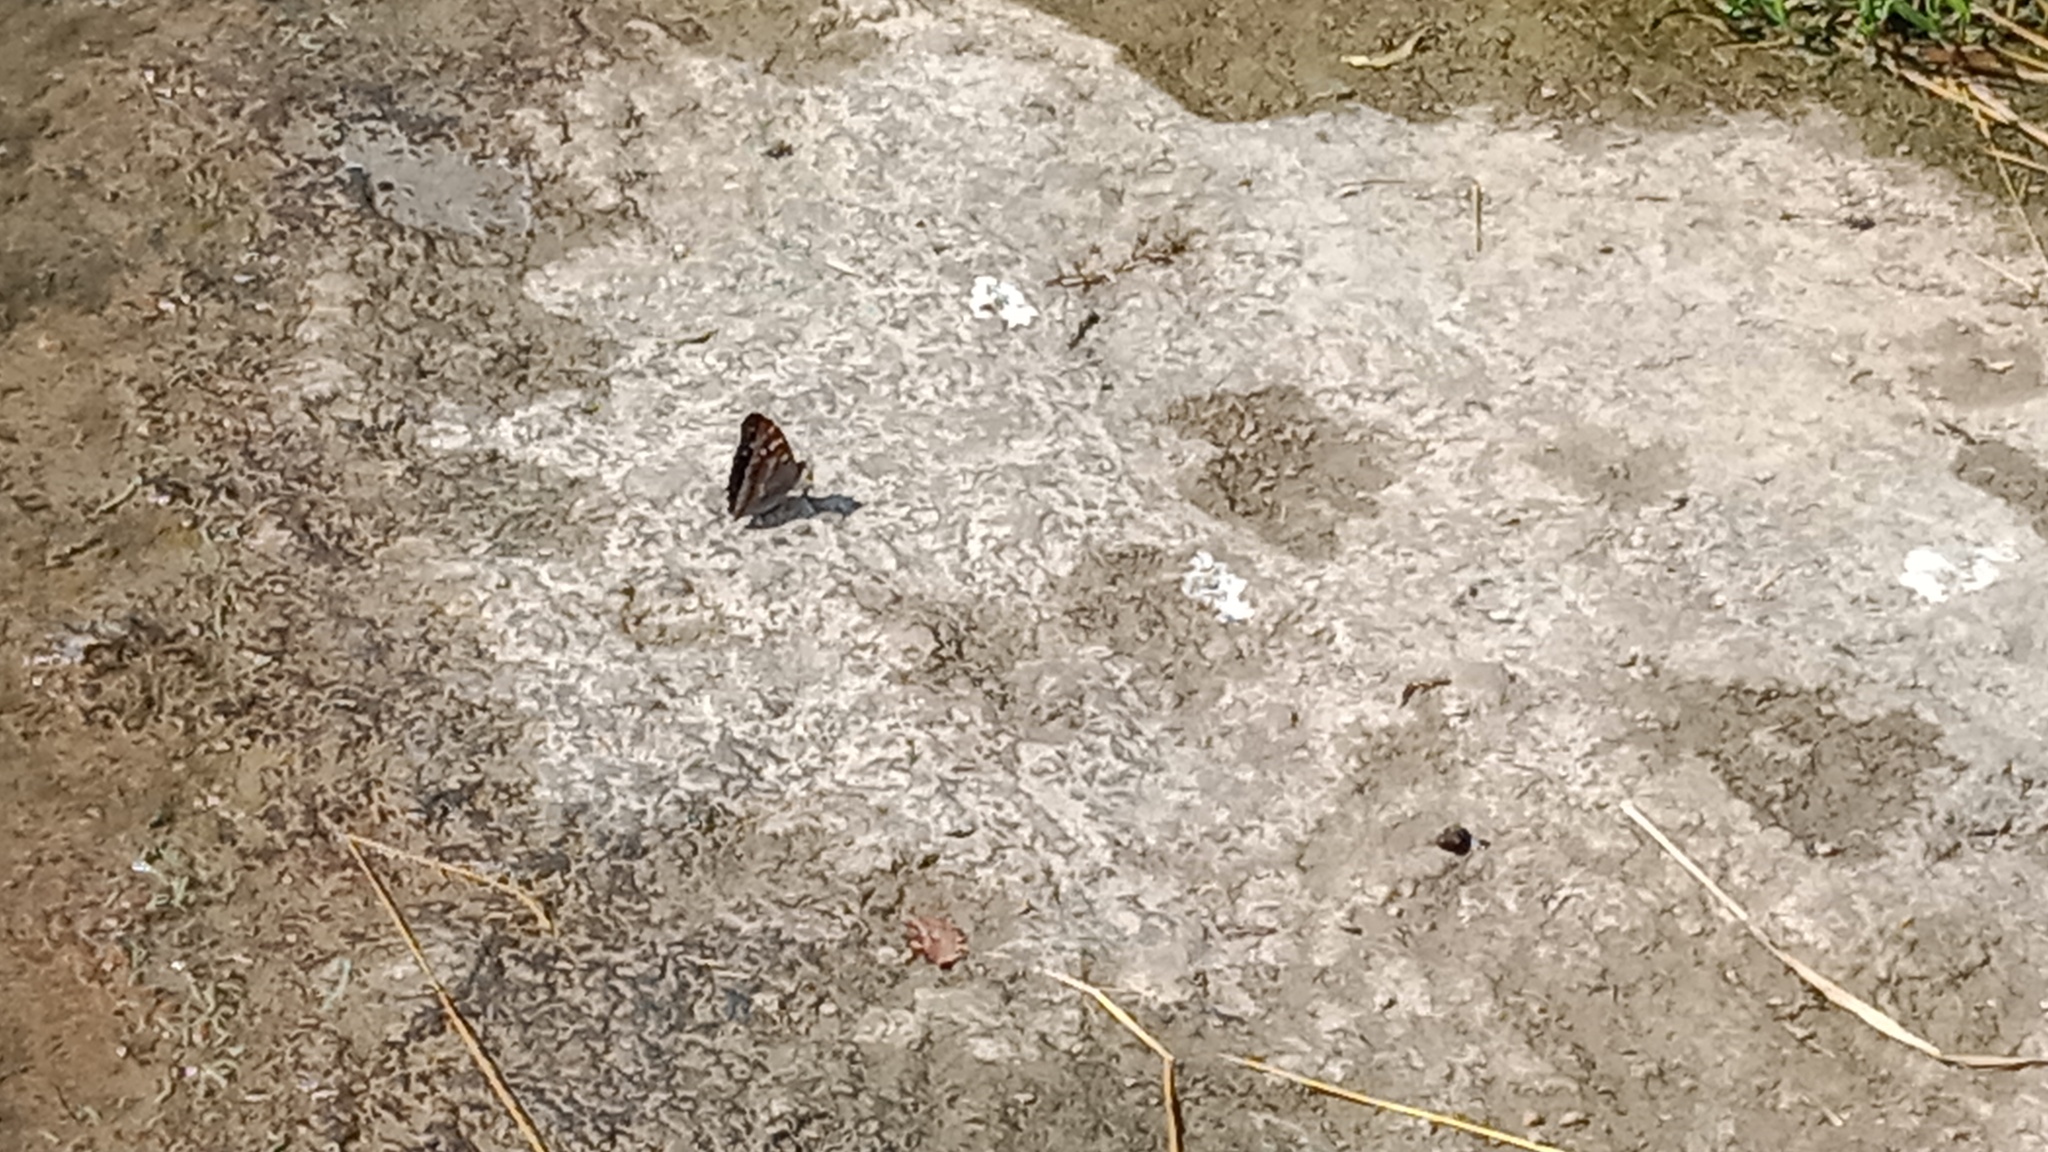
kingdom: Animalia
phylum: Arthropoda
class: Insecta
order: Lepidoptera
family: Nymphalidae
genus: Apatura
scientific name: Apatura ilia
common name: Lesser purple emperor
